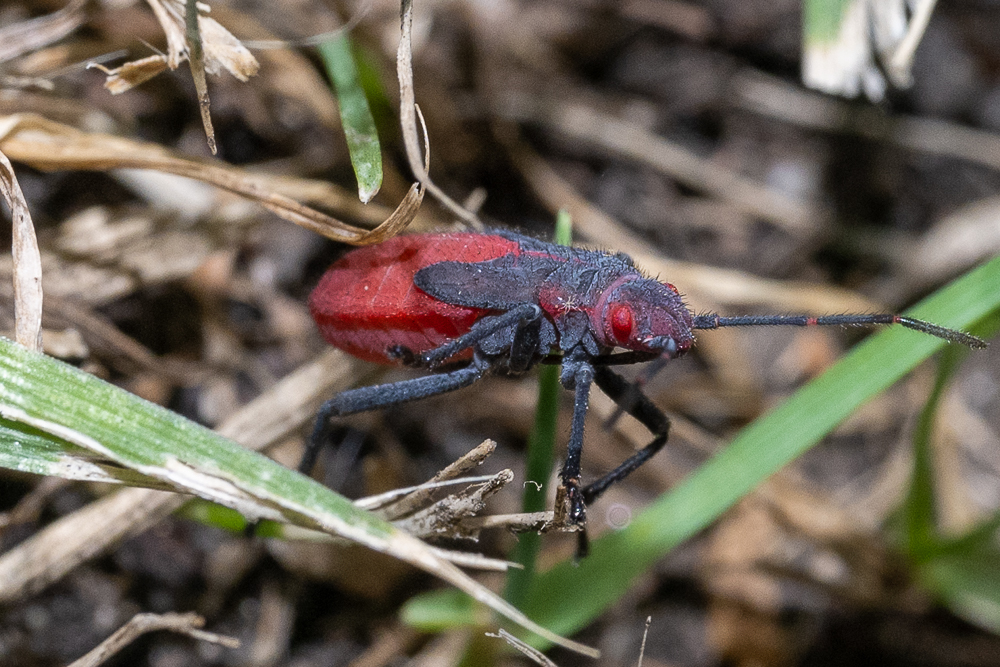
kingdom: Animalia
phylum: Arthropoda
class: Insecta
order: Hemiptera
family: Rhopalidae
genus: Jadera
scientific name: Jadera haematoloma
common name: Red-shouldered bug
